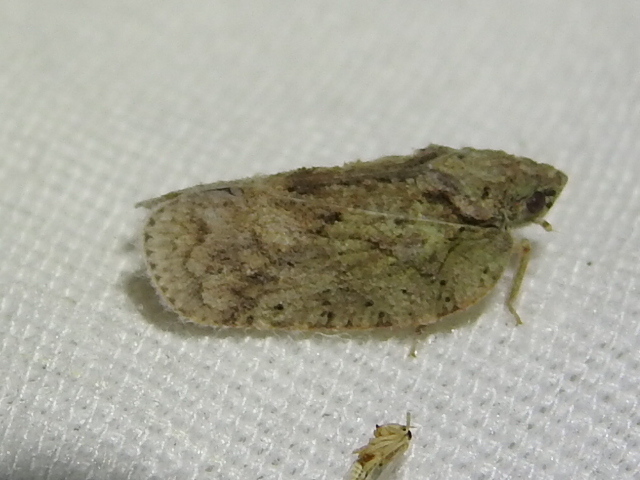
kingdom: Animalia
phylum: Arthropoda
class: Insecta
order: Hemiptera
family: Flatidae
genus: Flatoidinus
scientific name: Flatoidinus punctatus
